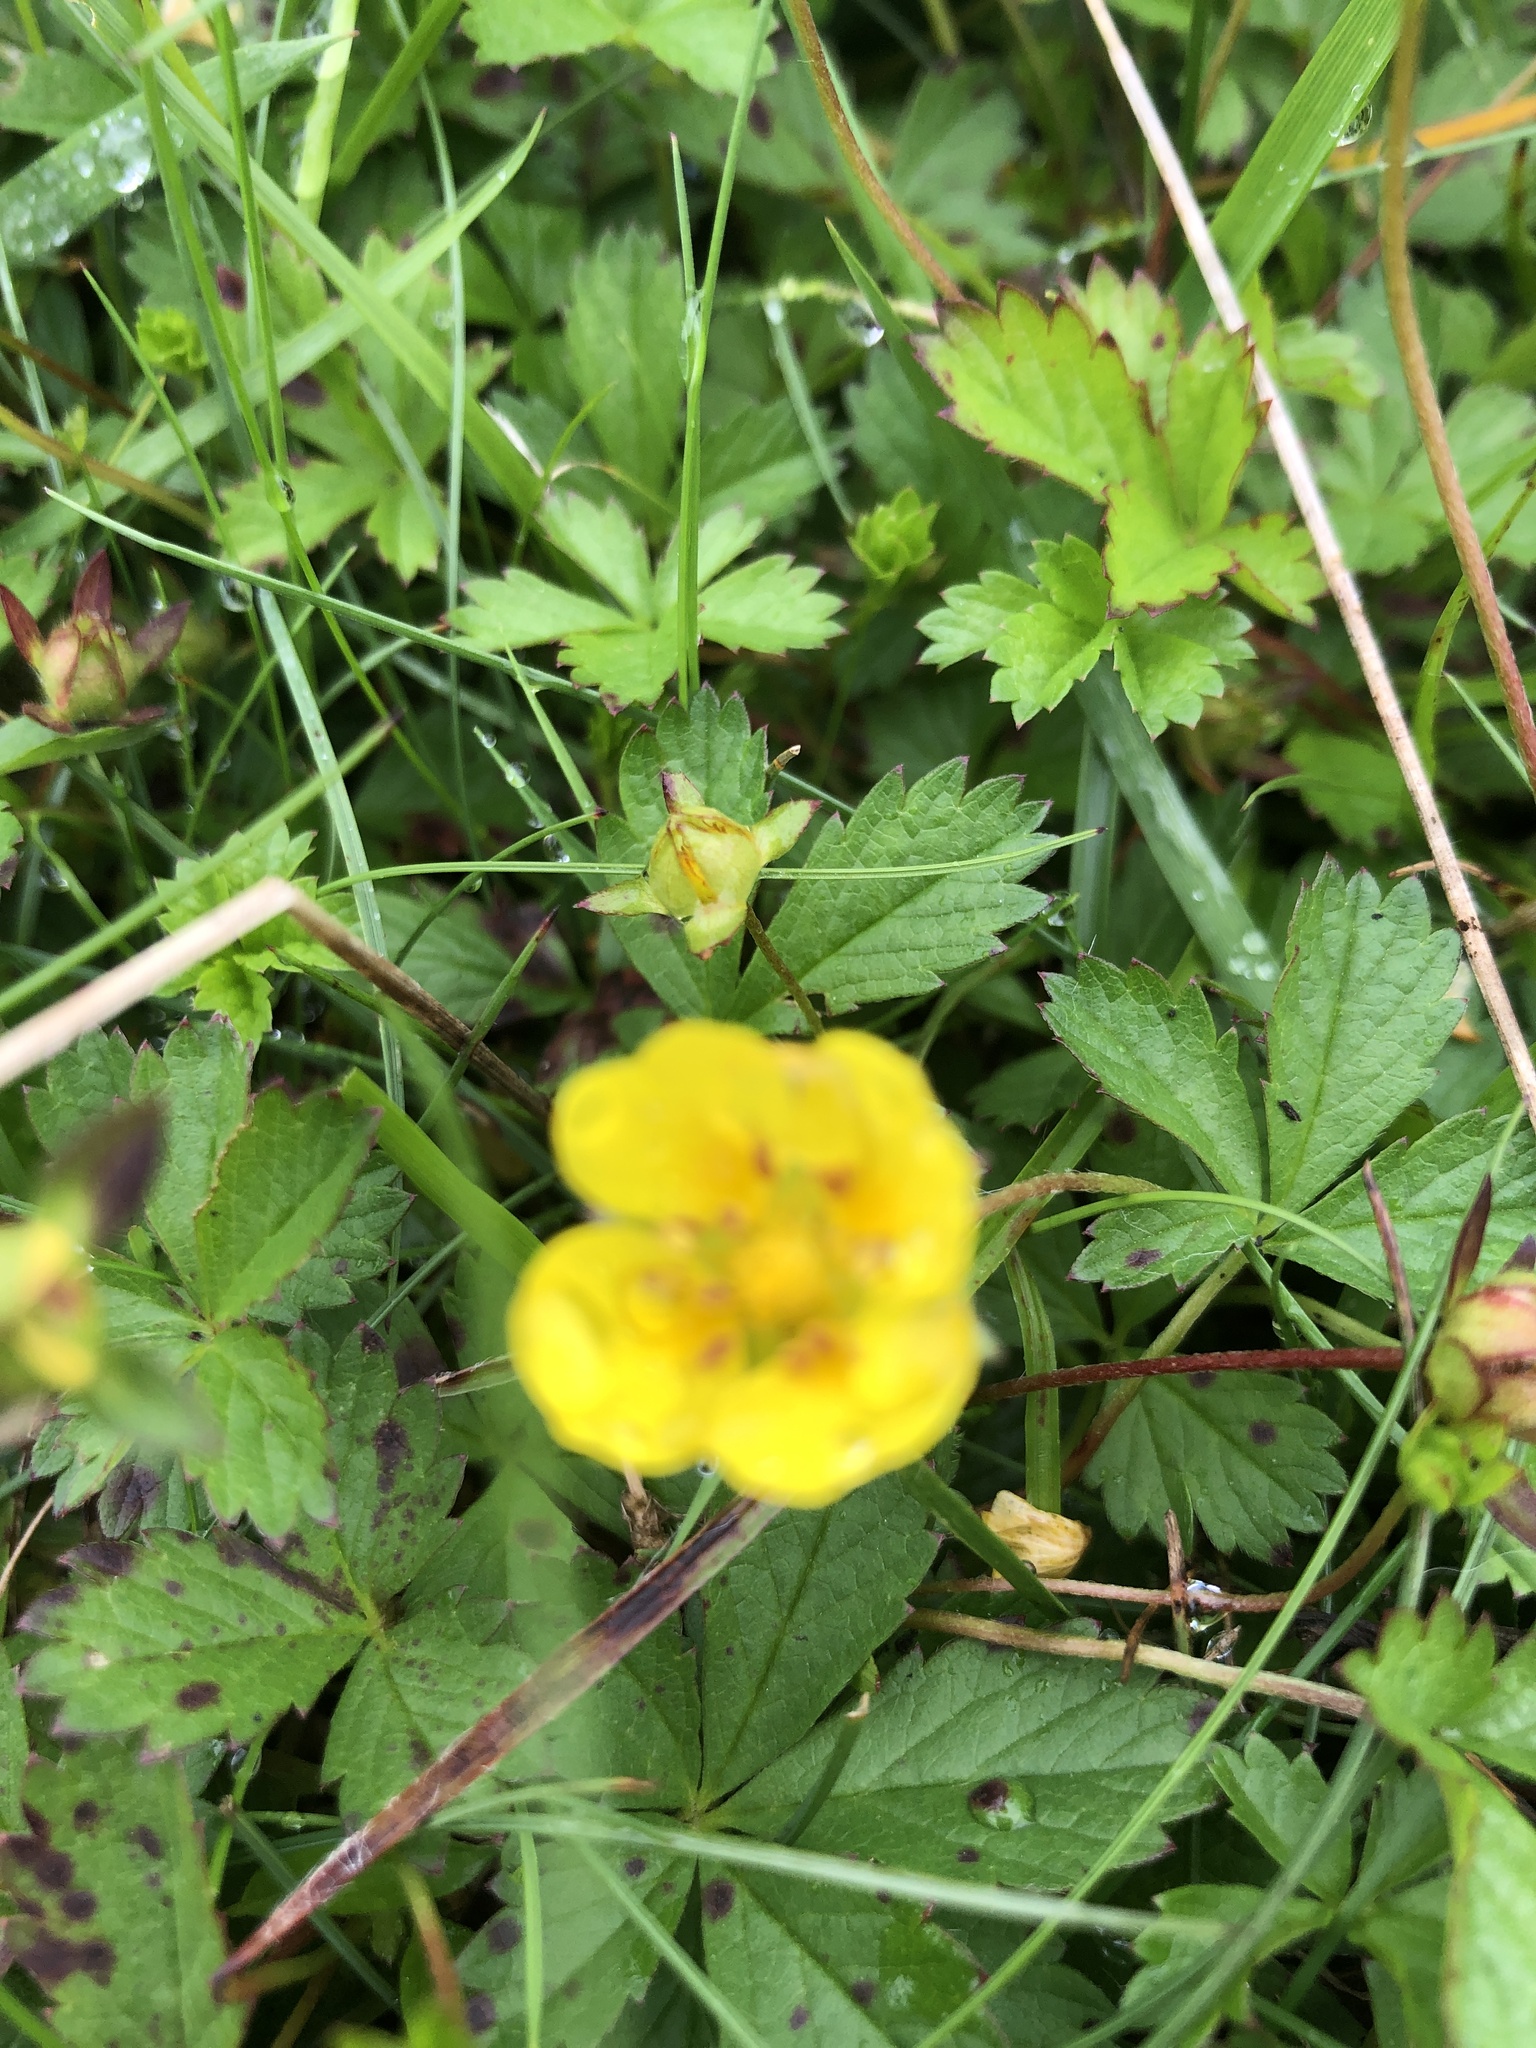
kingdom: Plantae
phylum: Tracheophyta
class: Magnoliopsida
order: Rosales
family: Rosaceae
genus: Potentilla
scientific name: Potentilla erecta
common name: Tormentil
